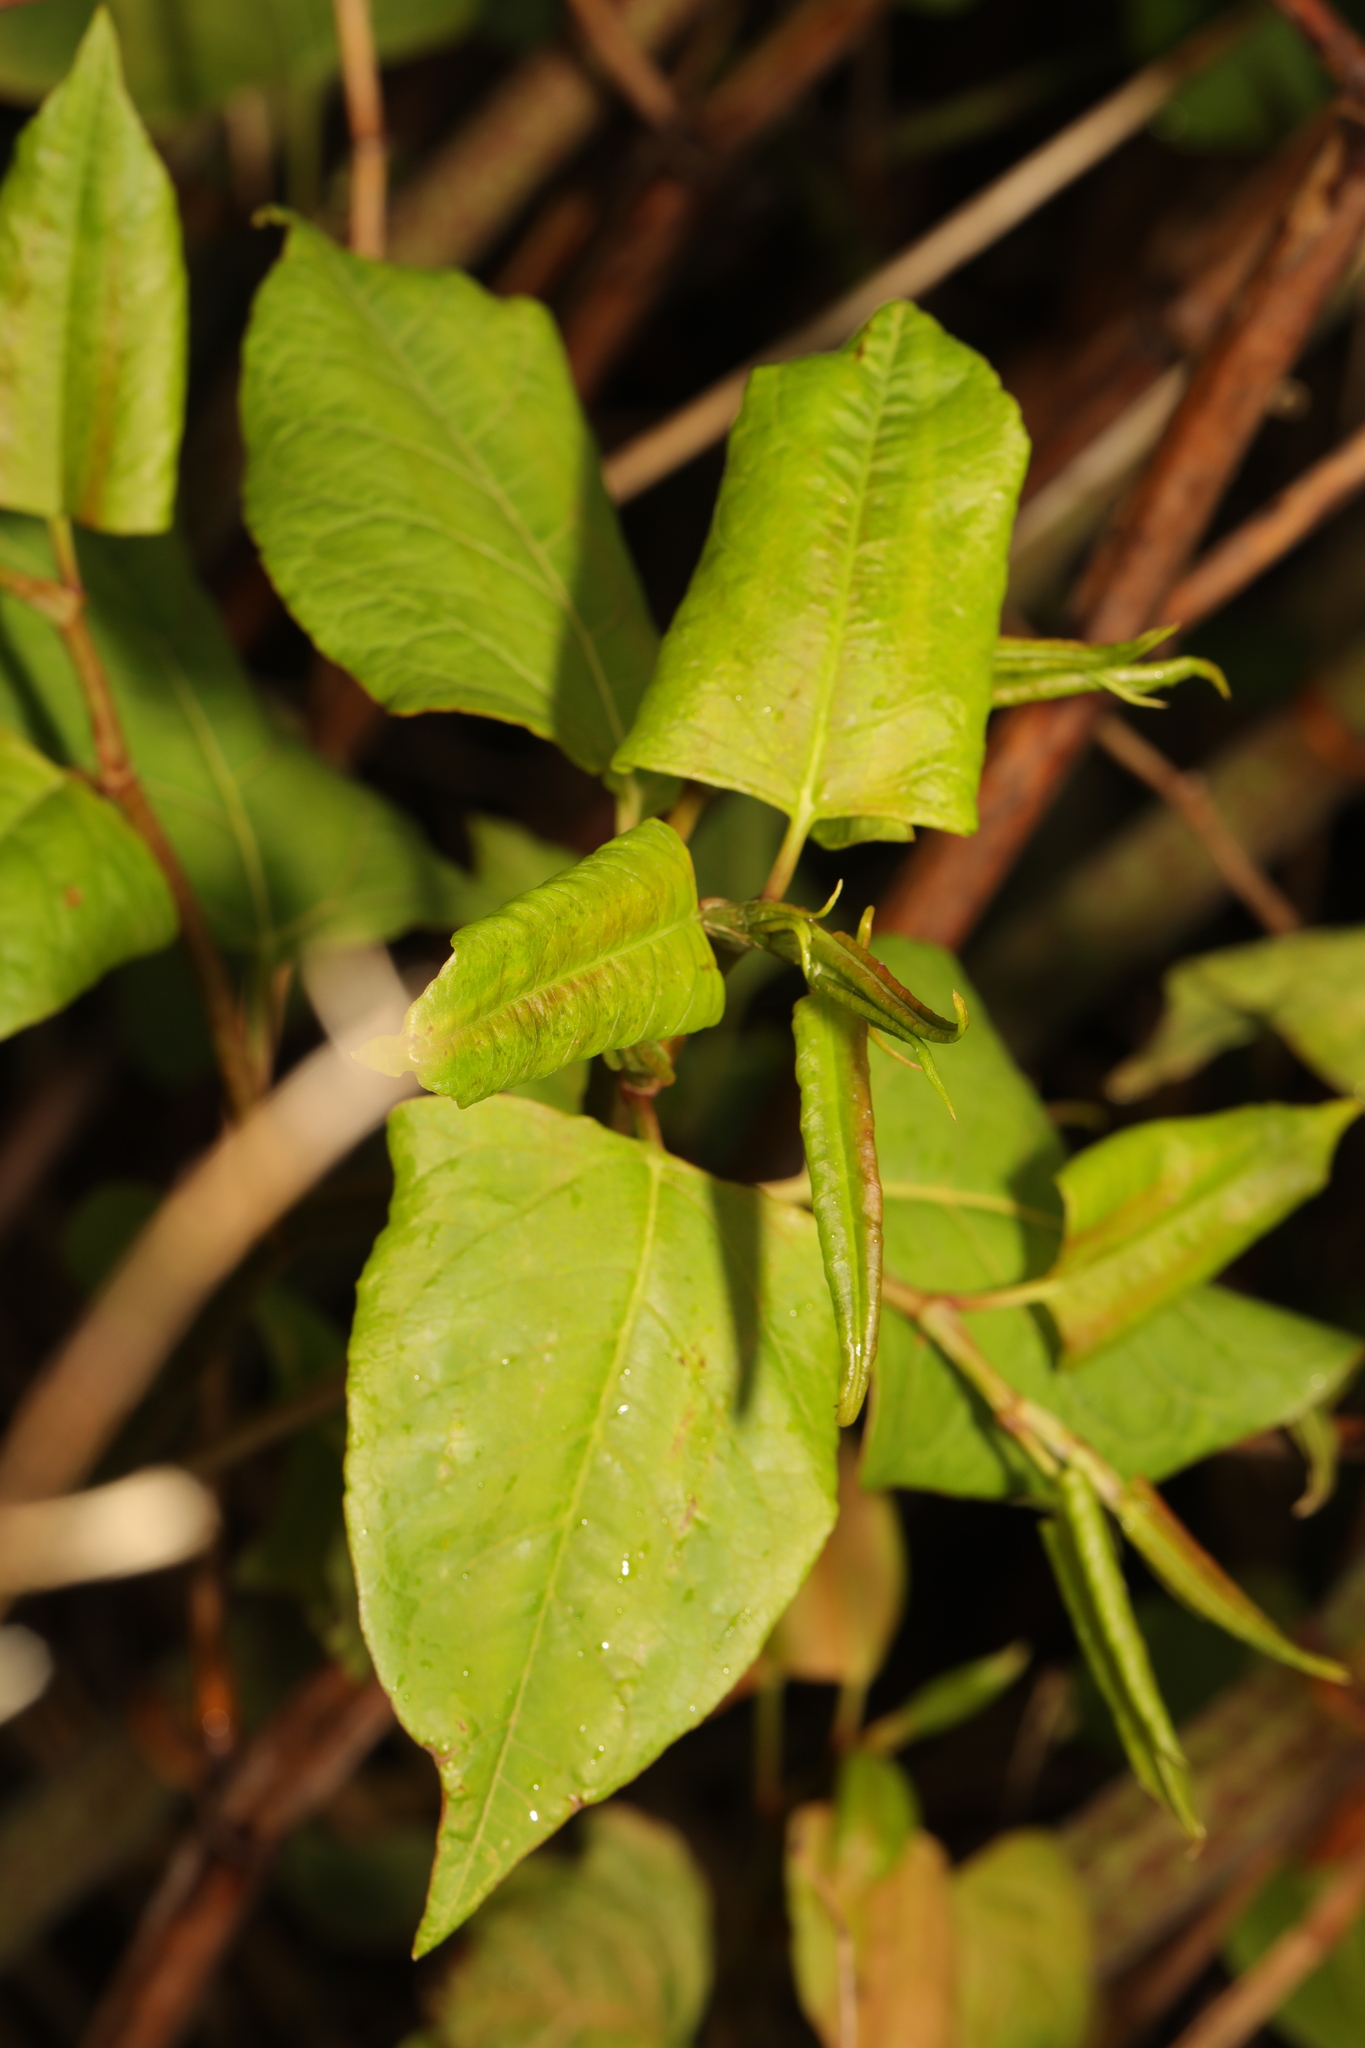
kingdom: Plantae
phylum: Tracheophyta
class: Magnoliopsida
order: Caryophyllales
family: Polygonaceae
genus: Reynoutria
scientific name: Reynoutria japonica
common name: Japanese knotweed
